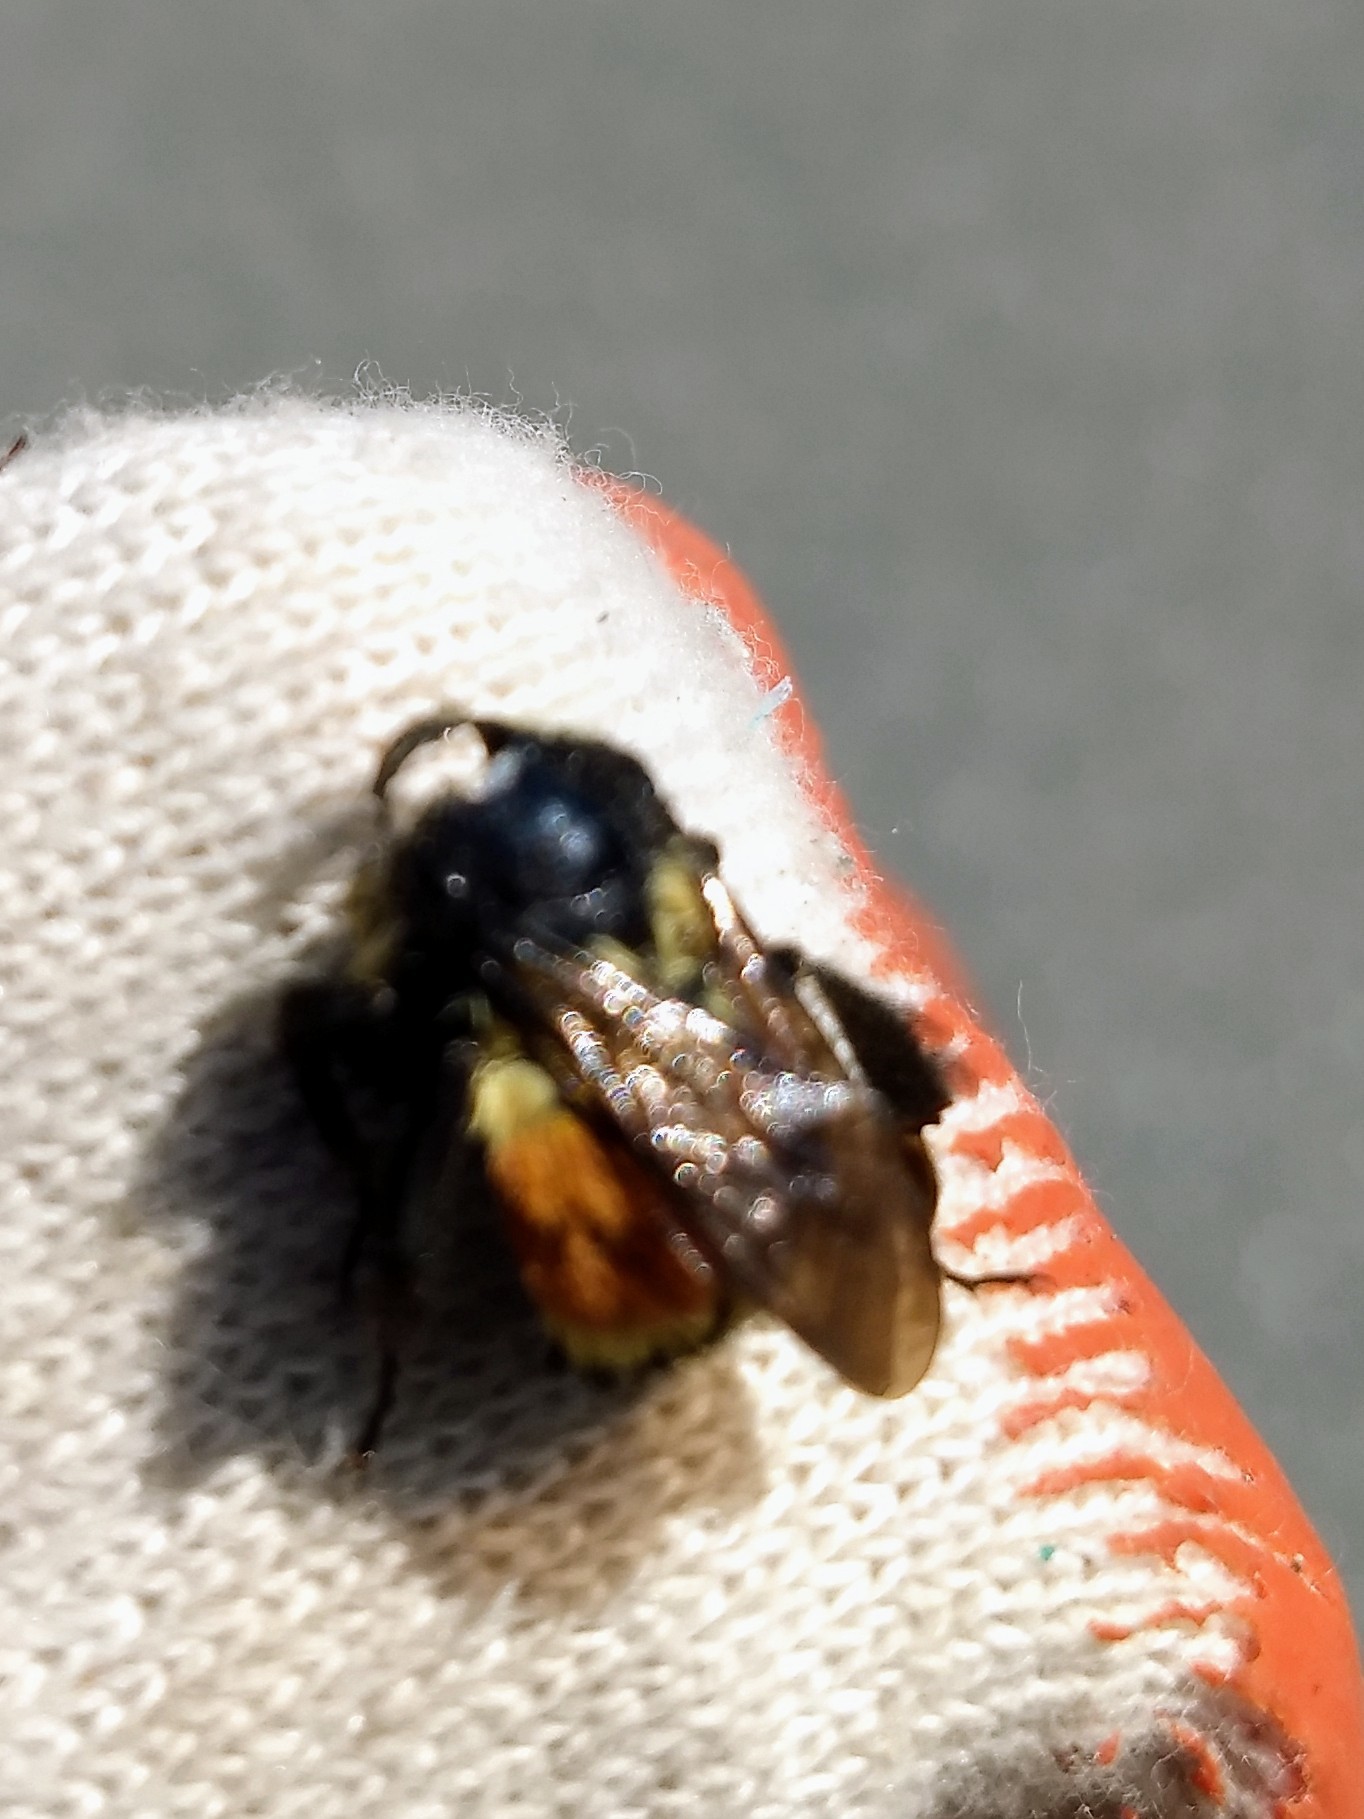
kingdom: Animalia
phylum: Arthropoda
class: Insecta
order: Hymenoptera
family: Apidae
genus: Bombus
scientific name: Bombus ternarius
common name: Tri-colored bumble bee
